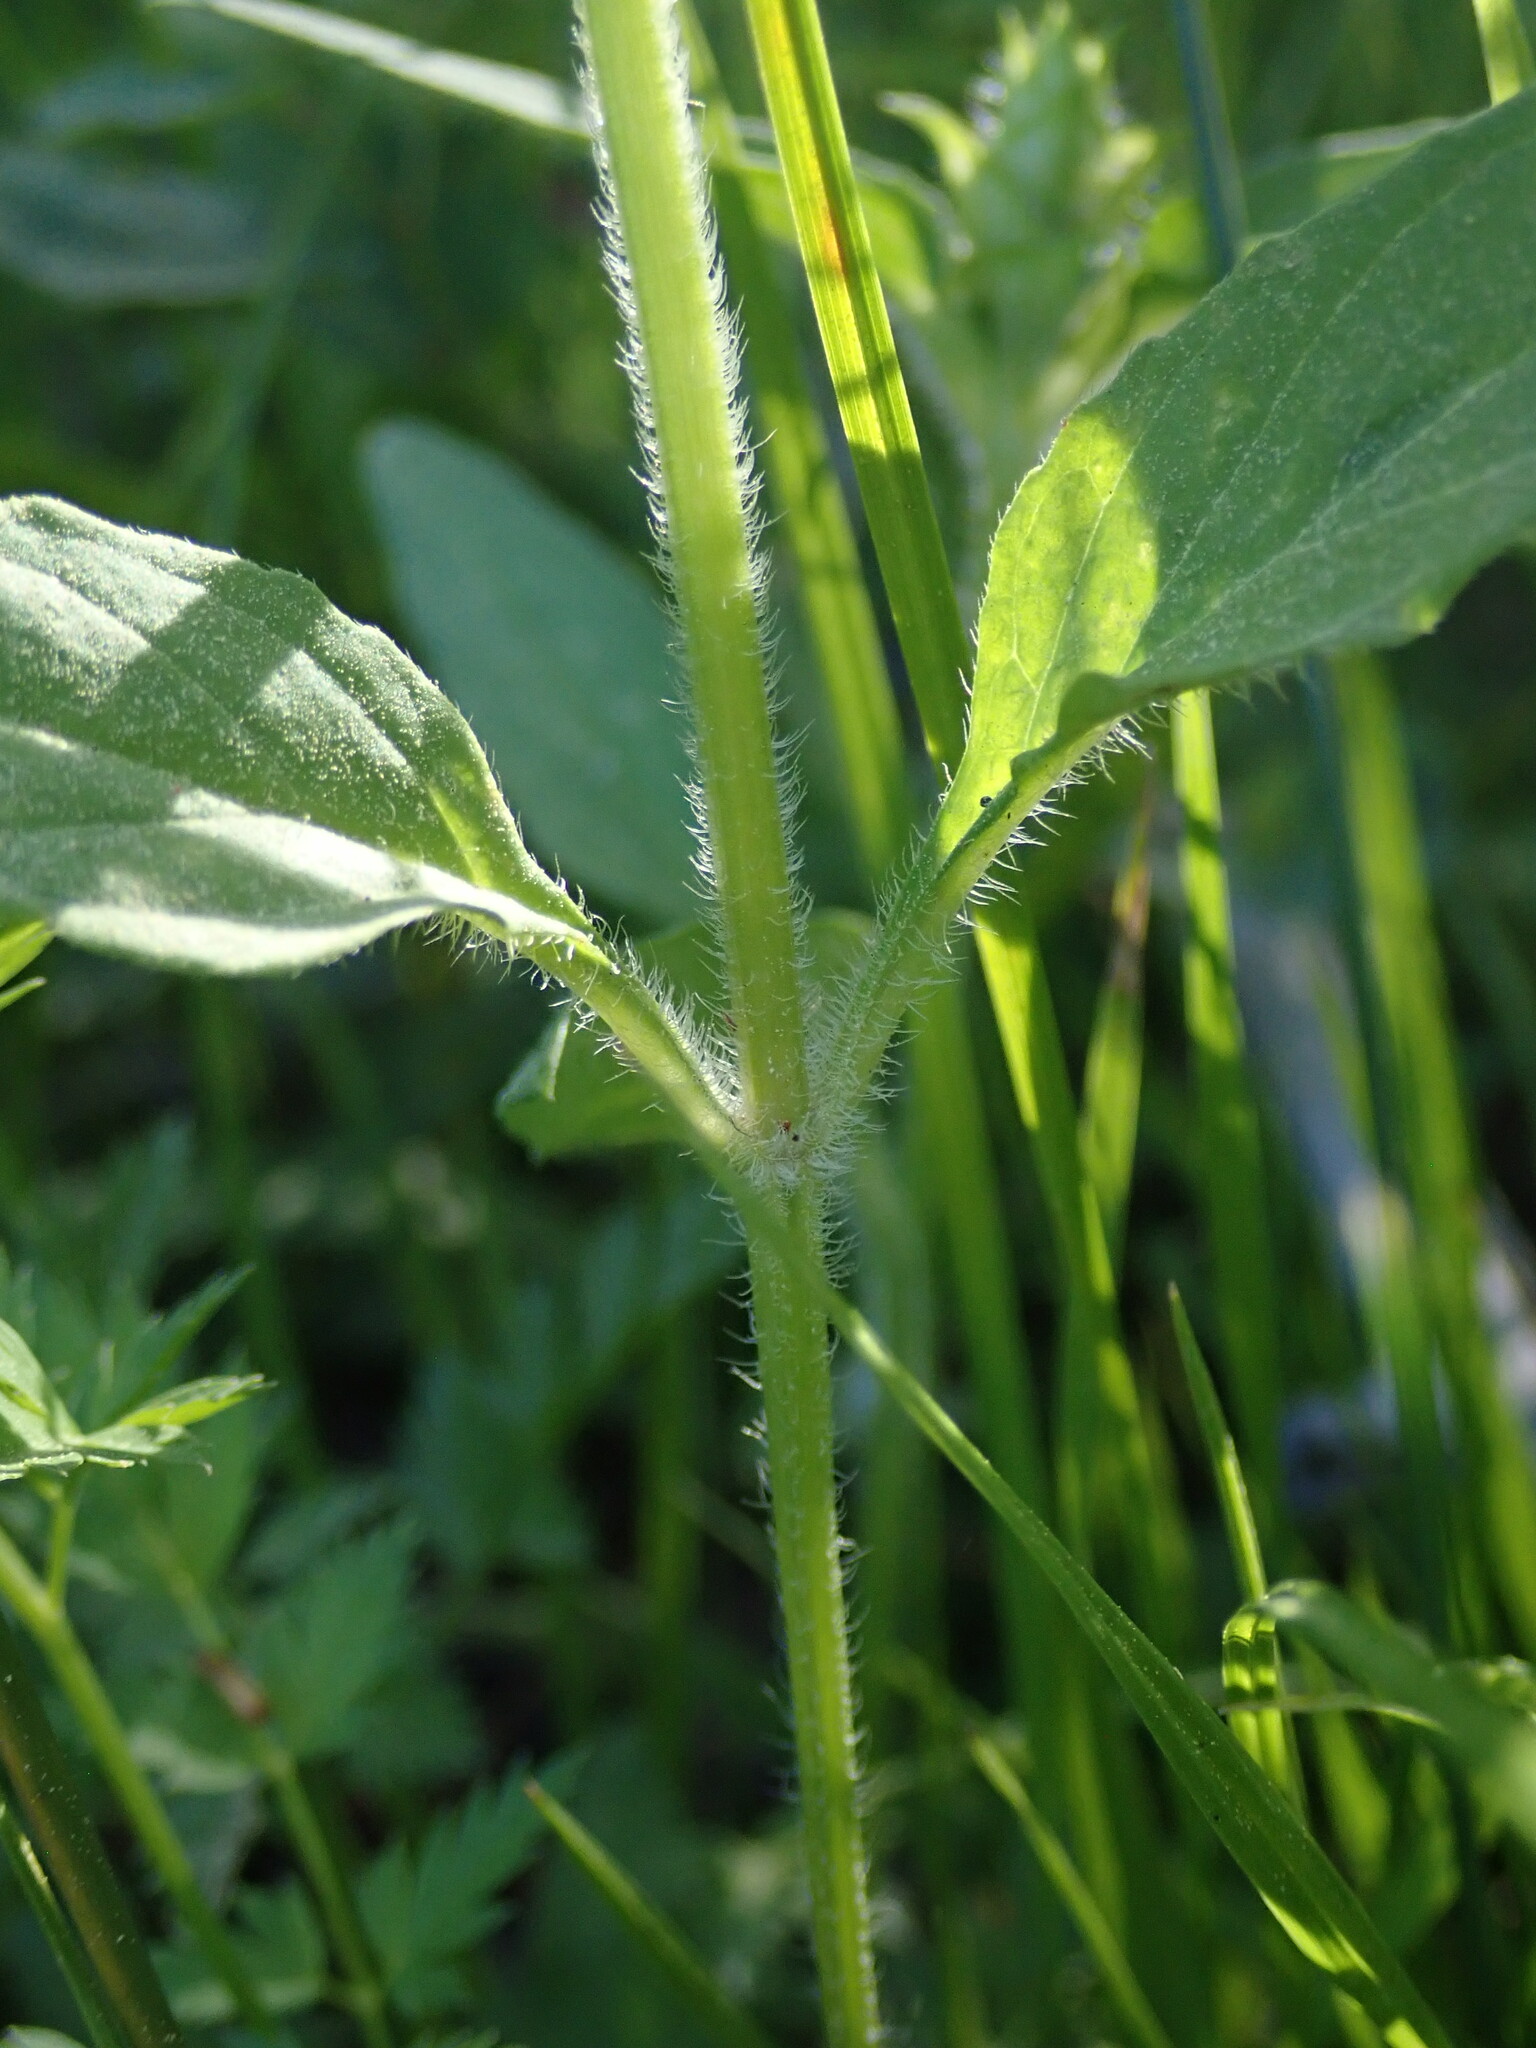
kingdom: Plantae
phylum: Tracheophyta
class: Magnoliopsida
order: Lamiales
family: Lamiaceae
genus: Prunella
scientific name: Prunella vulgaris
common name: Heal-all
